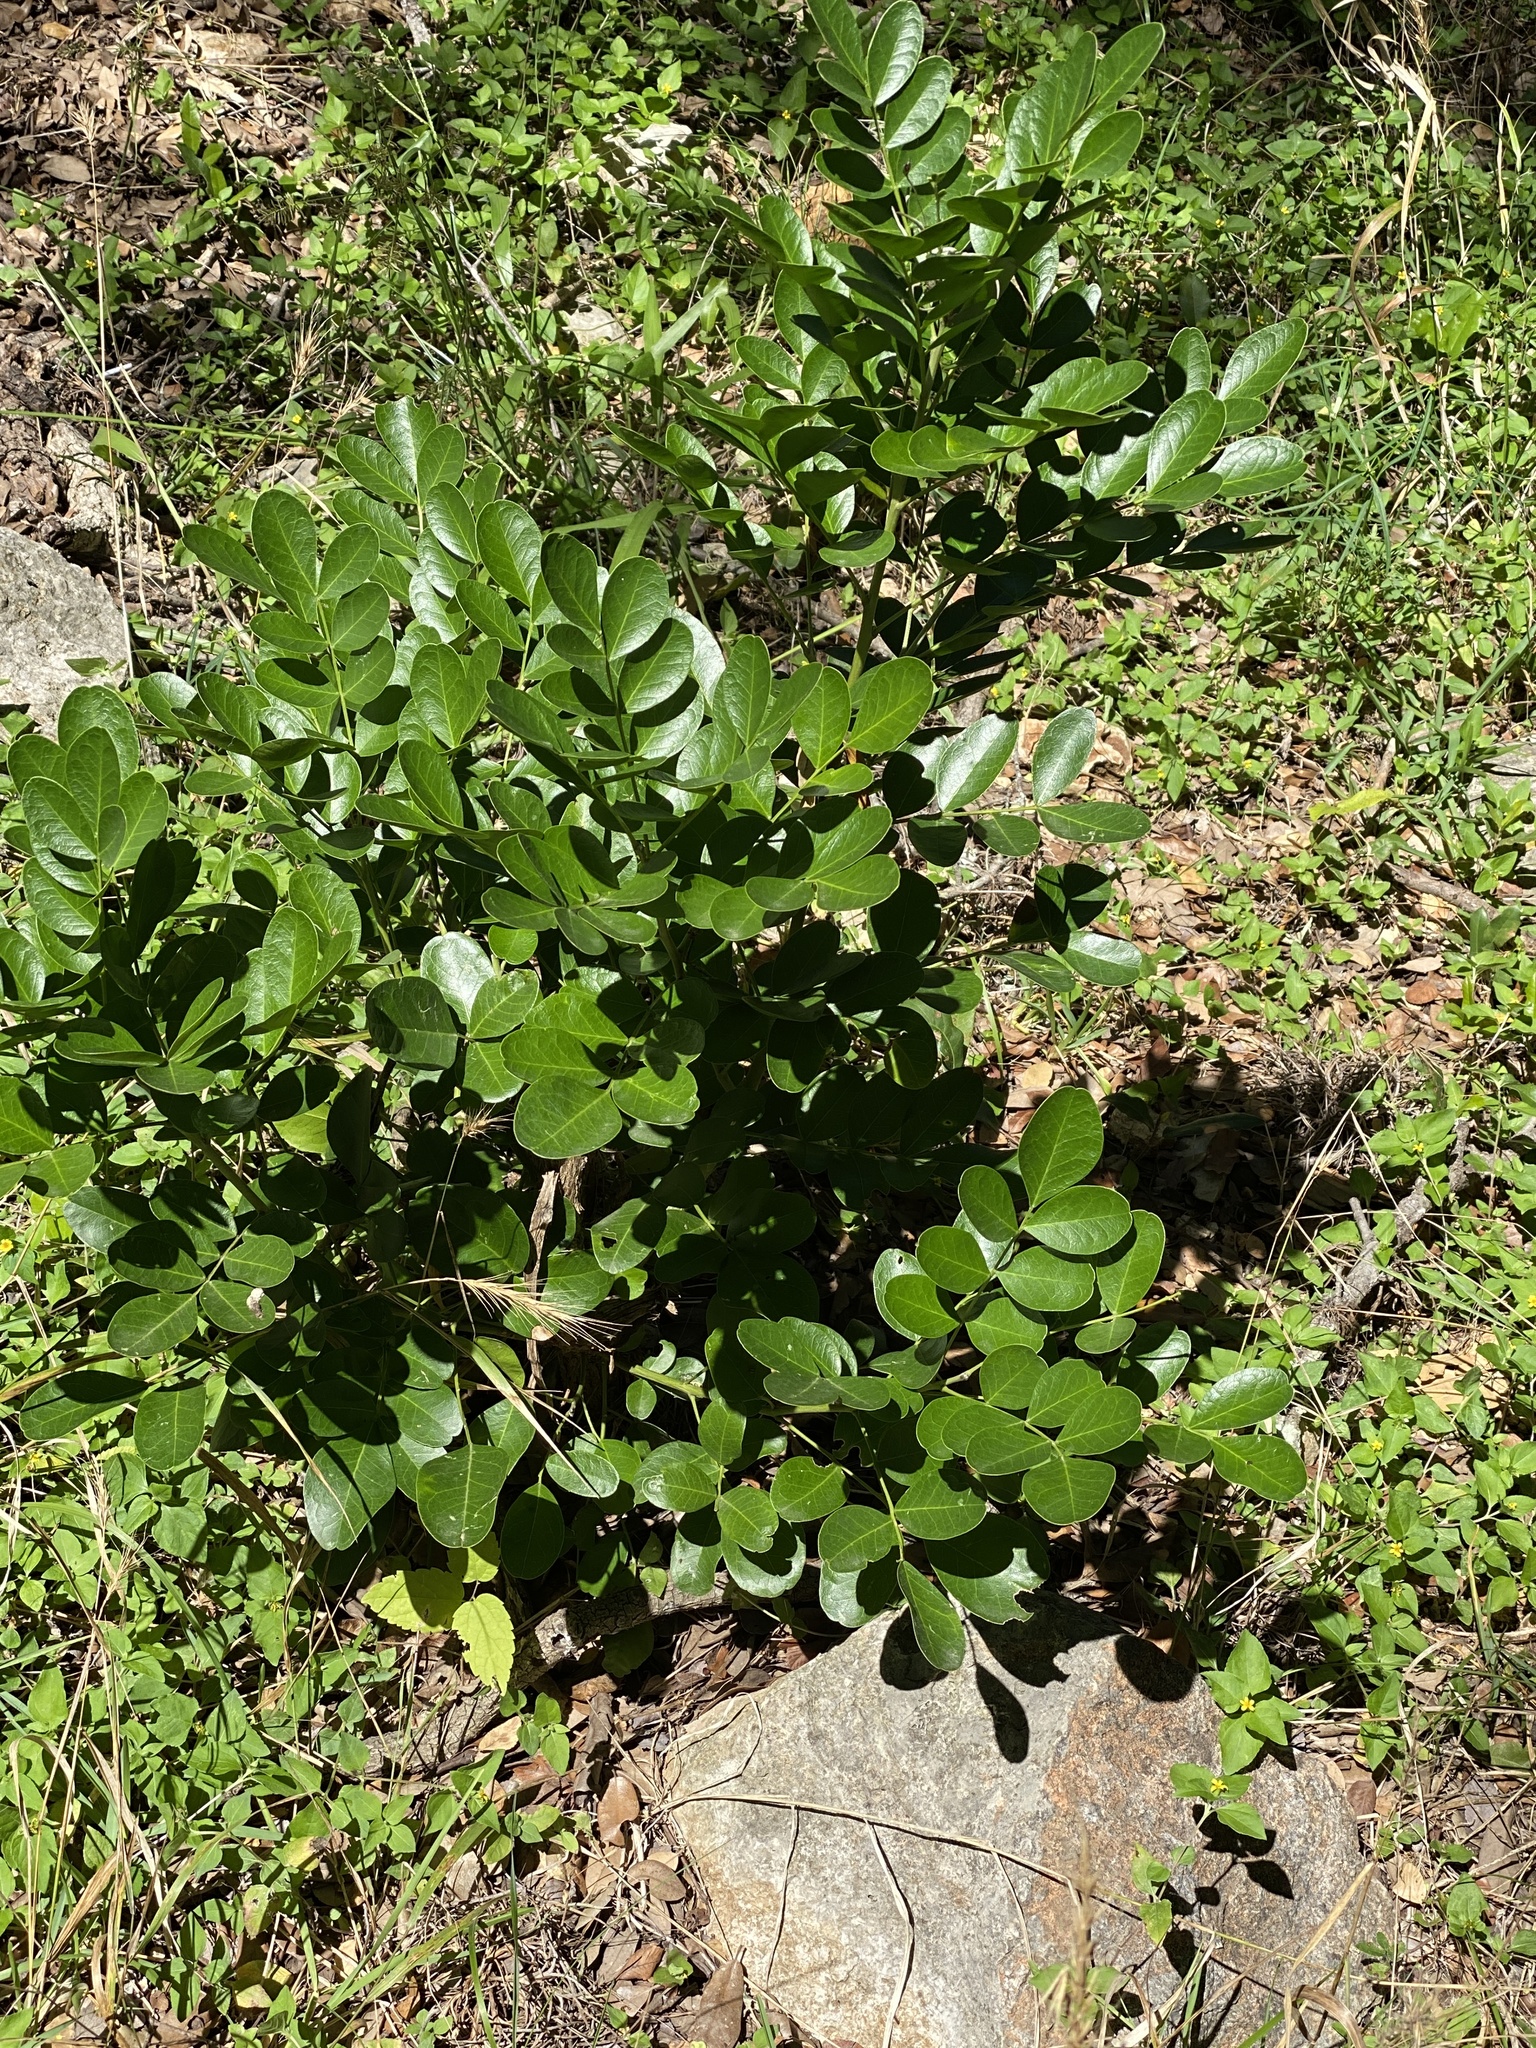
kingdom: Plantae
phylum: Tracheophyta
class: Magnoliopsida
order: Fabales
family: Fabaceae
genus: Dermatophyllum
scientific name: Dermatophyllum secundiflorum
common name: Texas-mountain-laurel
